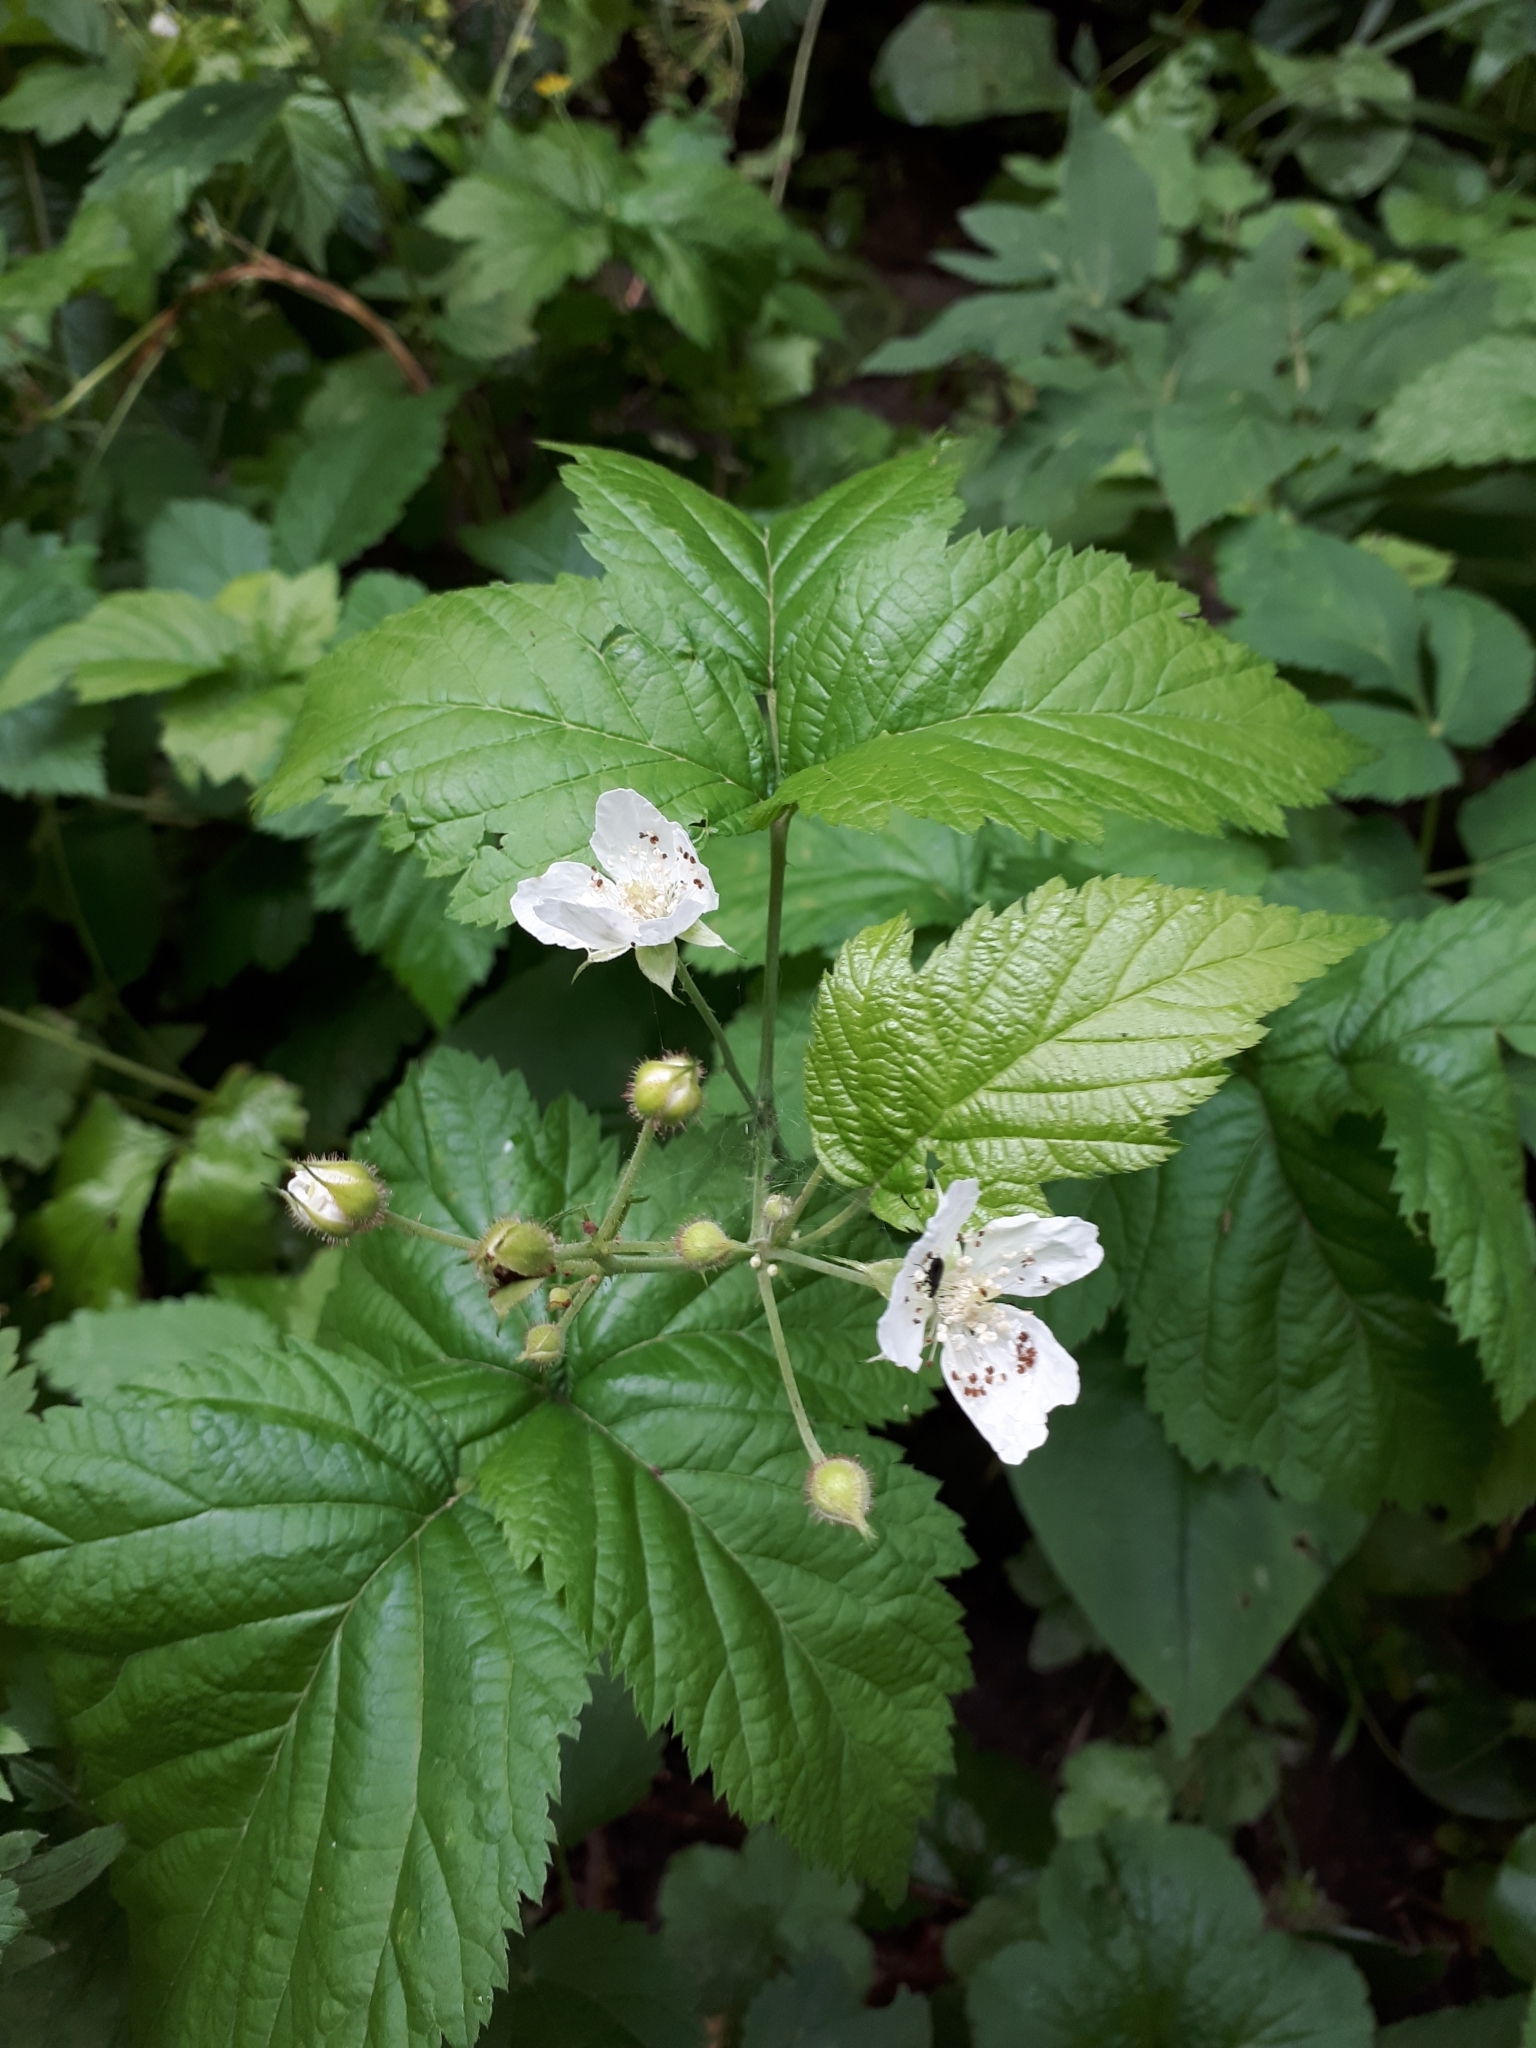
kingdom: Plantae
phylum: Tracheophyta
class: Magnoliopsida
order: Rosales
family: Rosaceae
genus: Rubus
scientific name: Rubus caesius
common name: Dewberry
